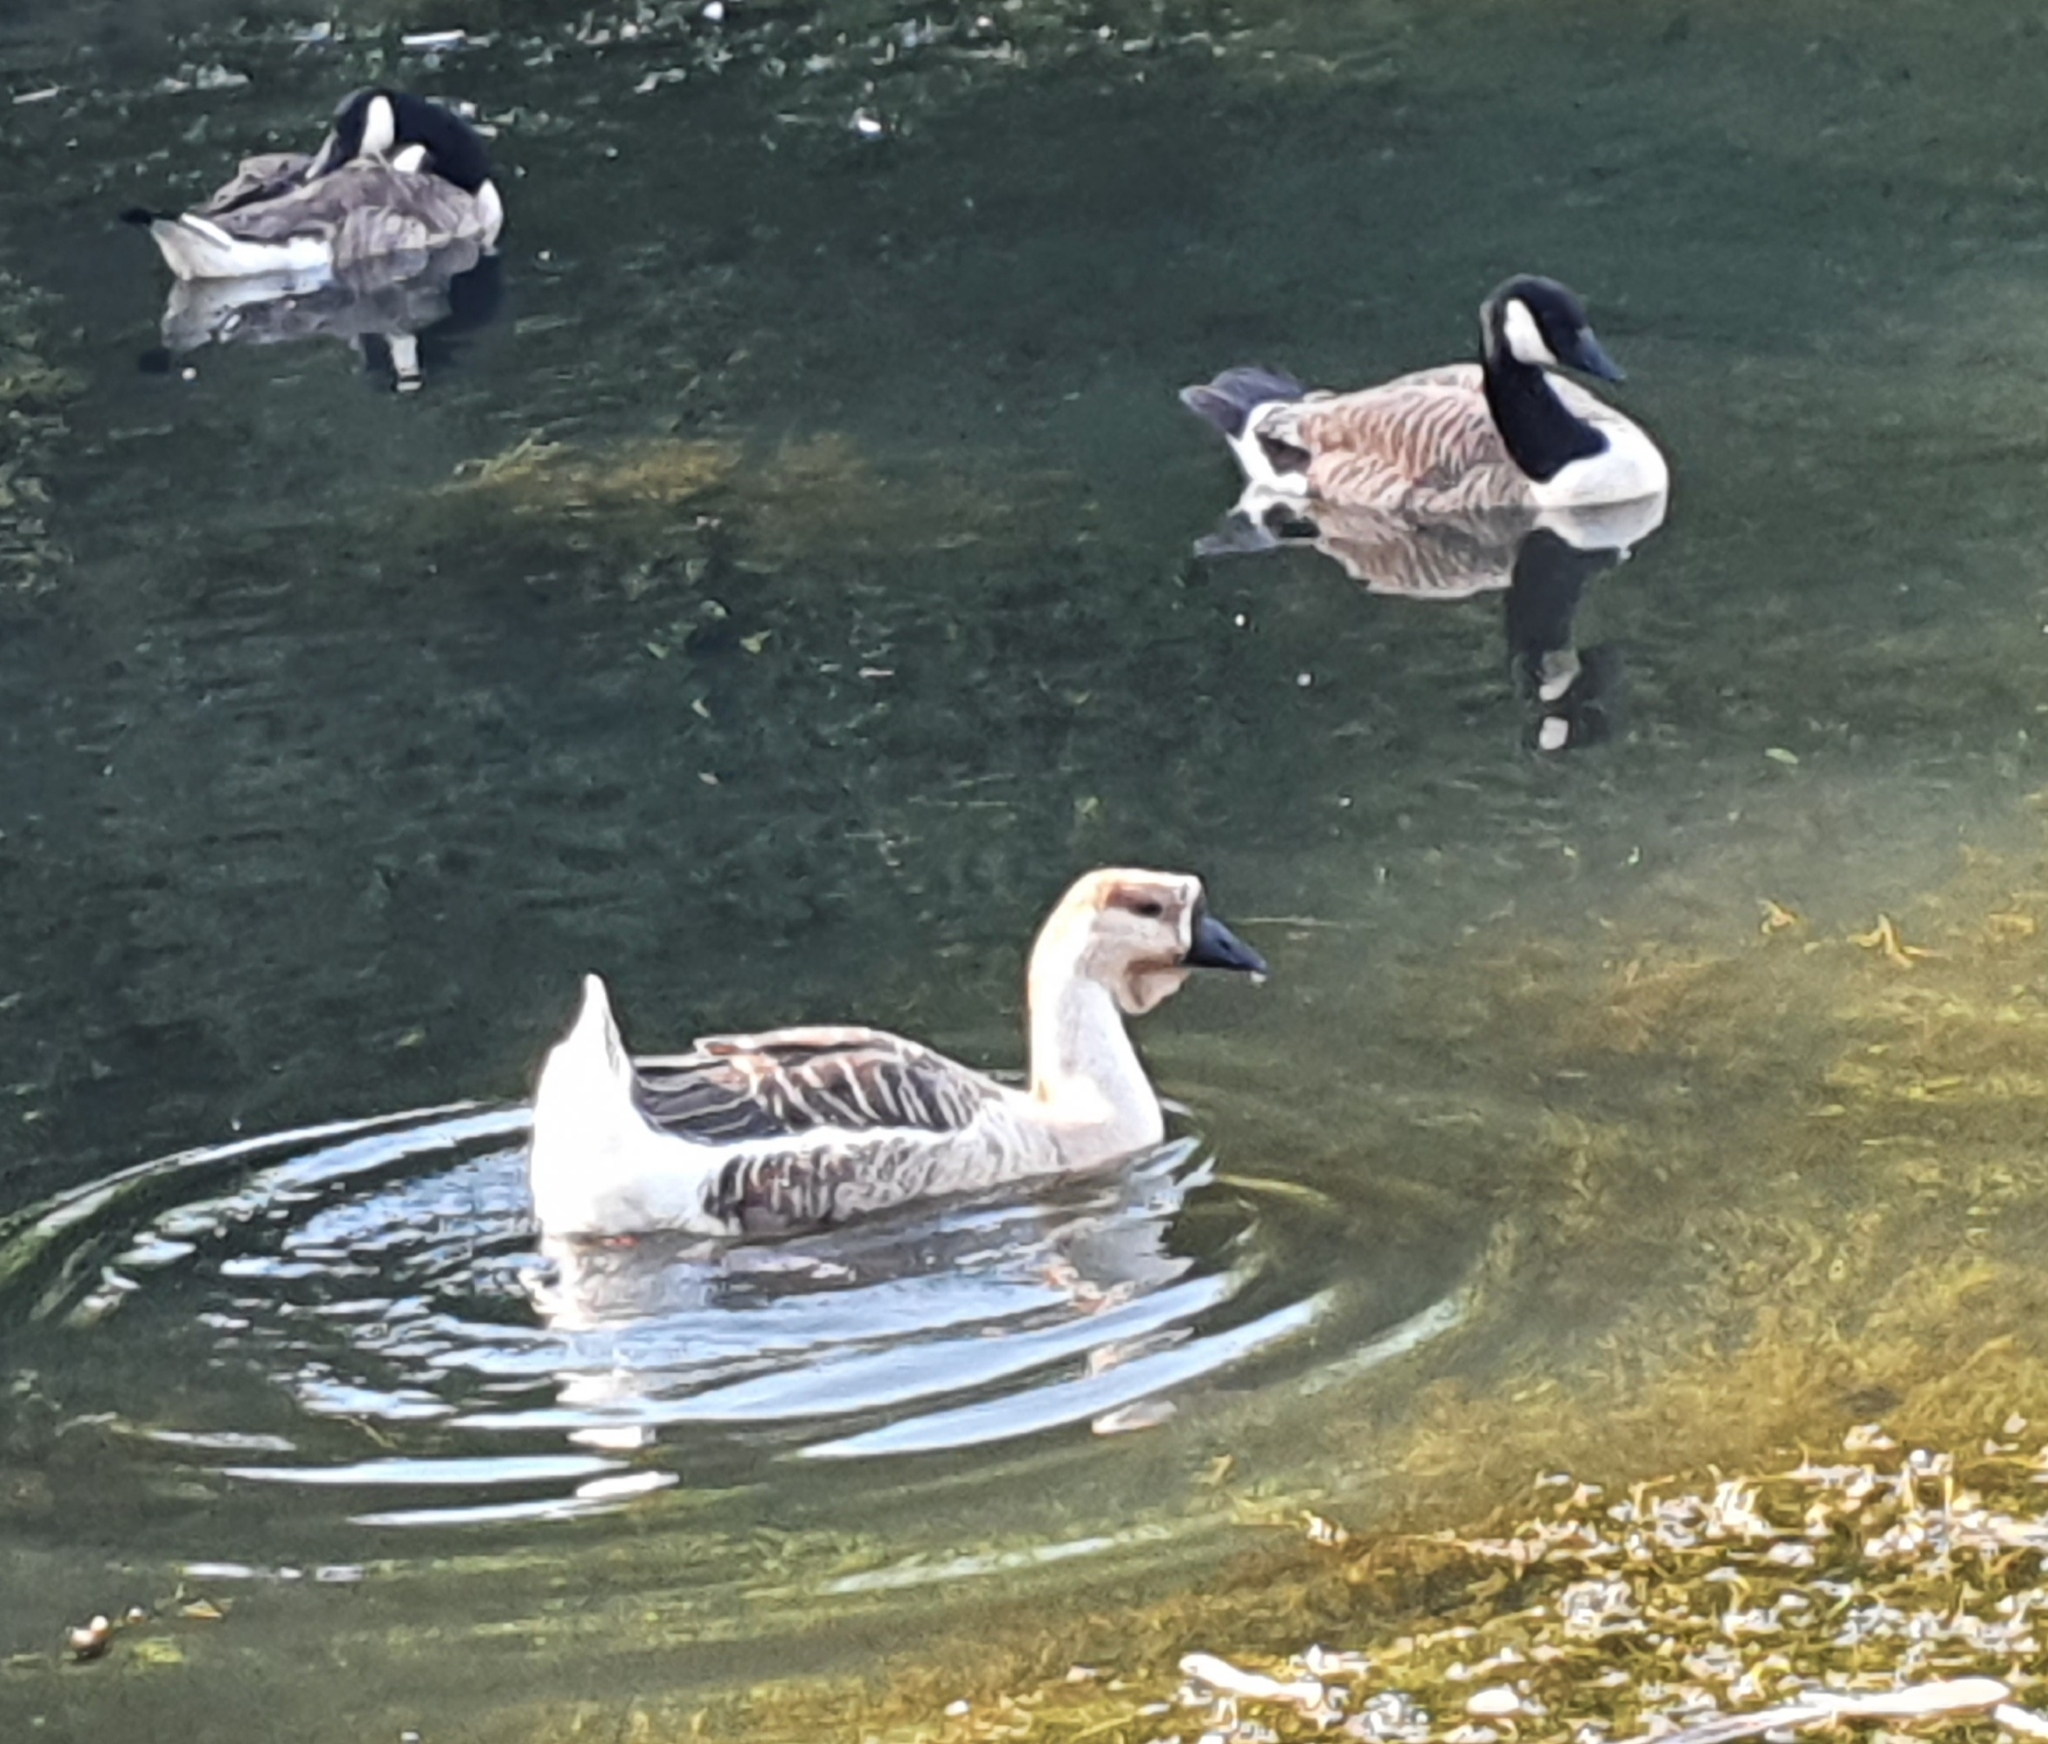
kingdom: Animalia
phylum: Chordata
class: Aves
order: Anseriformes
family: Anatidae
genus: Anser
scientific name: Anser cygnoides
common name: Swan goose
